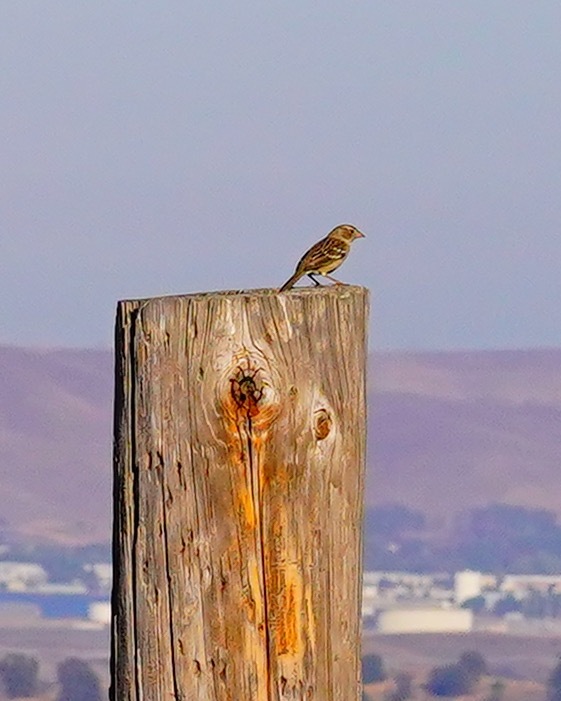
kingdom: Animalia
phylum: Chordata
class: Aves
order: Passeriformes
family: Passerellidae
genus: Zonotrichia
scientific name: Zonotrichia atricapilla
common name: Golden-crowned sparrow
